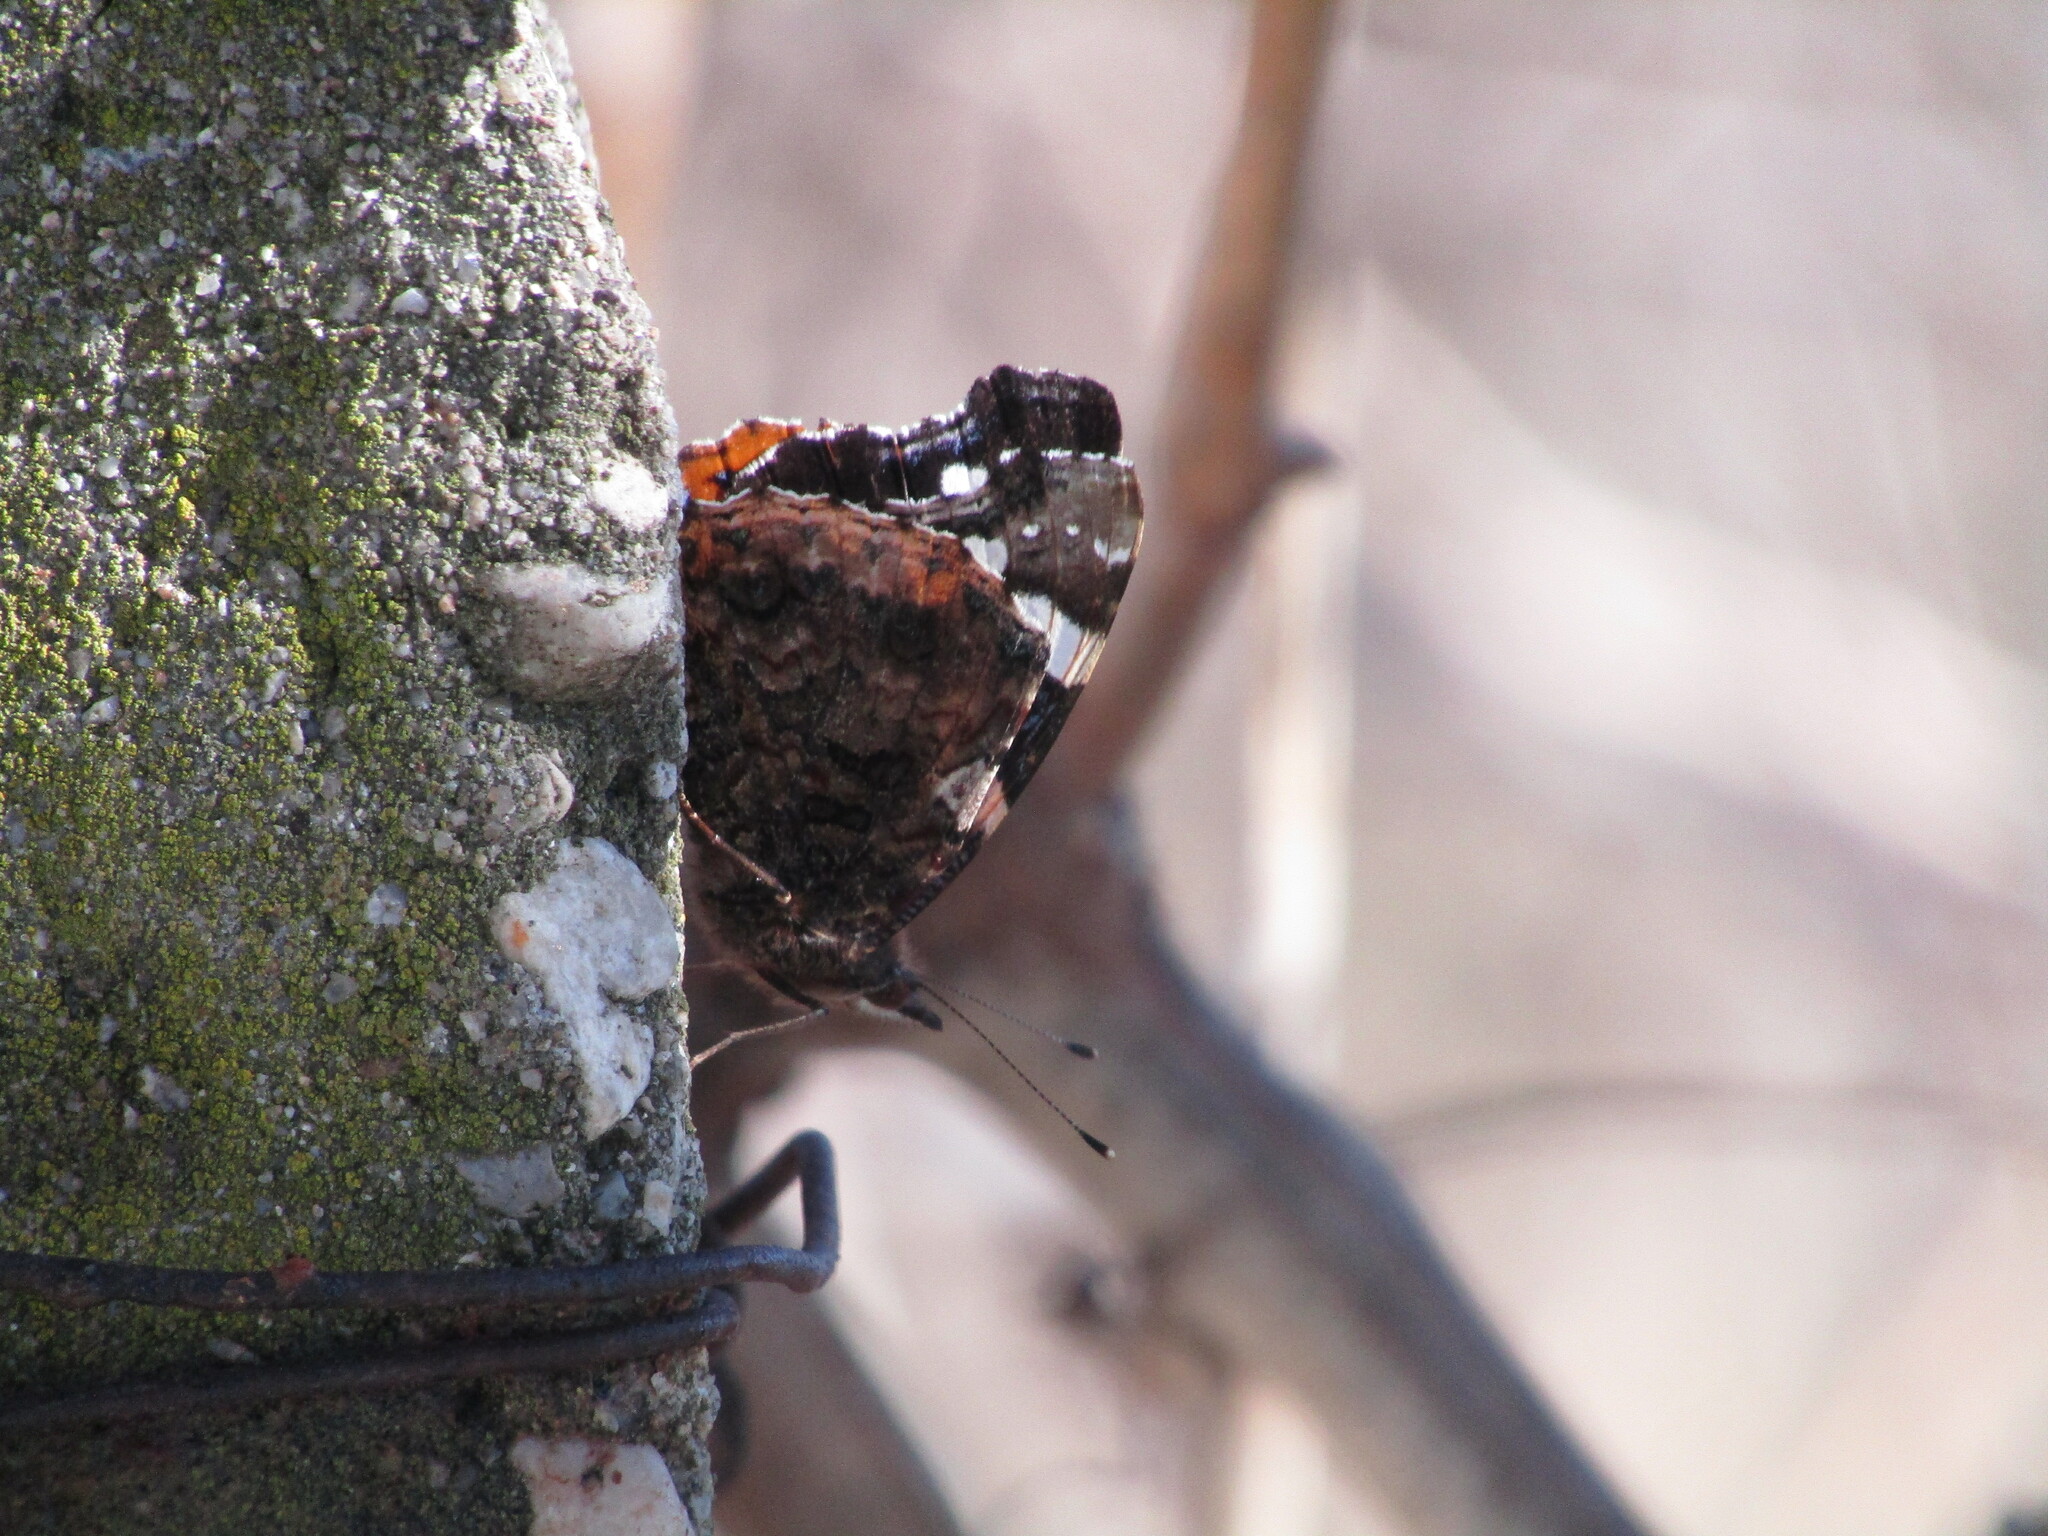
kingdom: Animalia
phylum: Arthropoda
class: Insecta
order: Lepidoptera
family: Nymphalidae
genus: Vanessa
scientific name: Vanessa atalanta
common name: Red admiral
